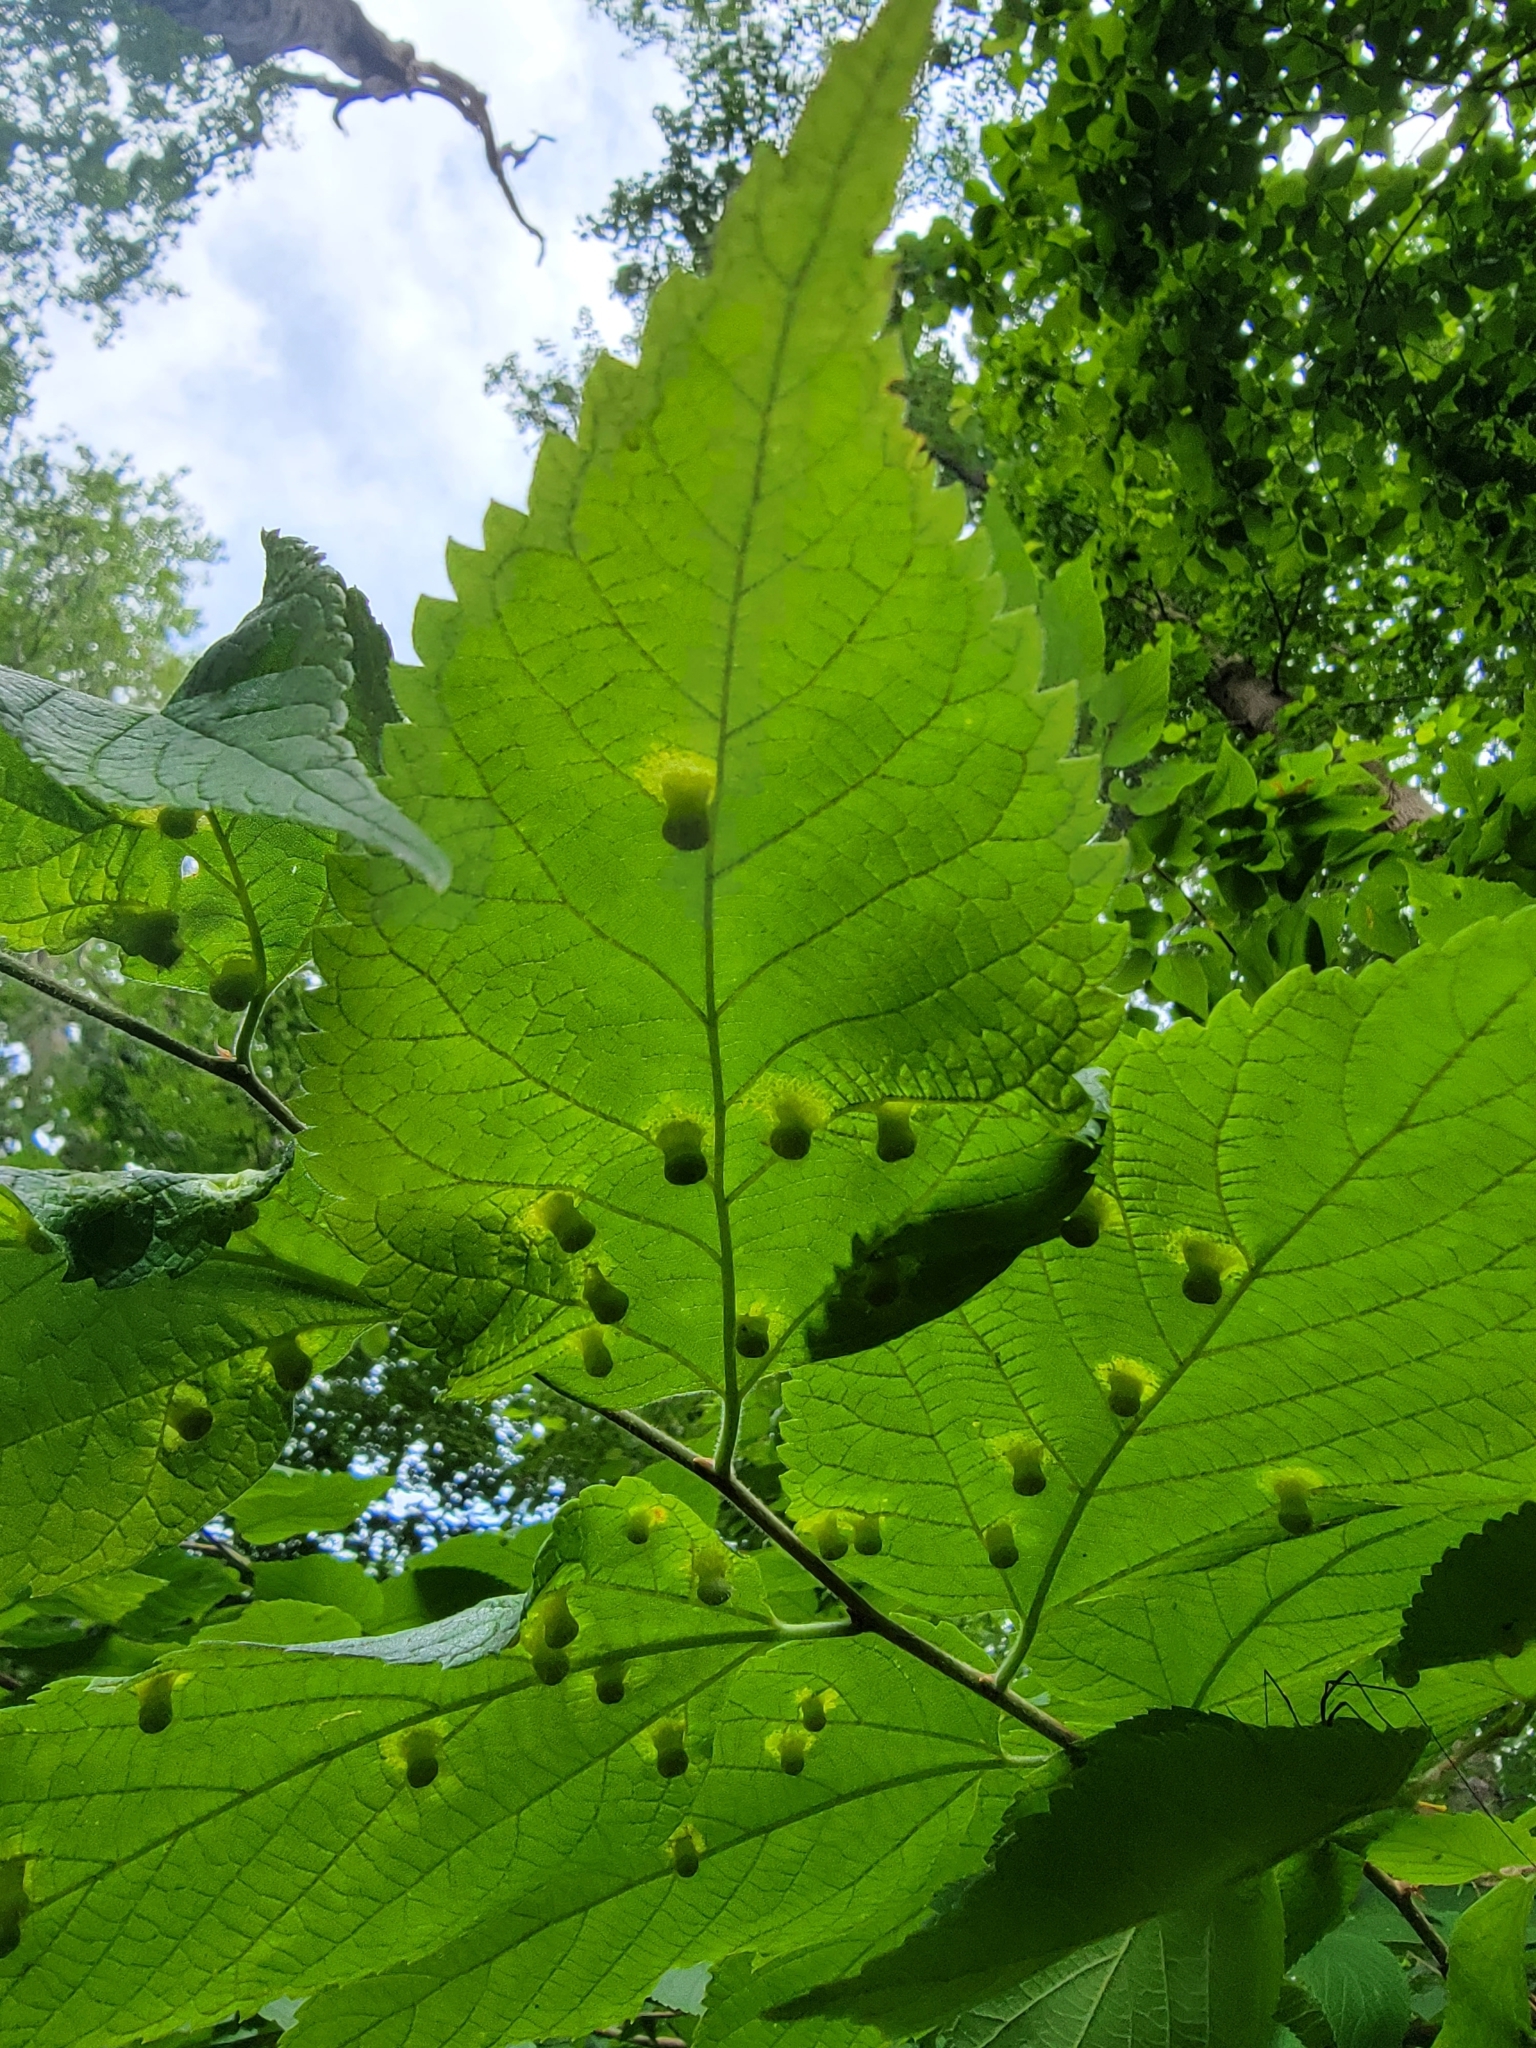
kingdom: Animalia
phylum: Arthropoda
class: Insecta
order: Hemiptera
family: Aphalaridae
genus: Pachypsylla
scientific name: Pachypsylla celtidismamma
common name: Hackberry nipplegall psyllid
